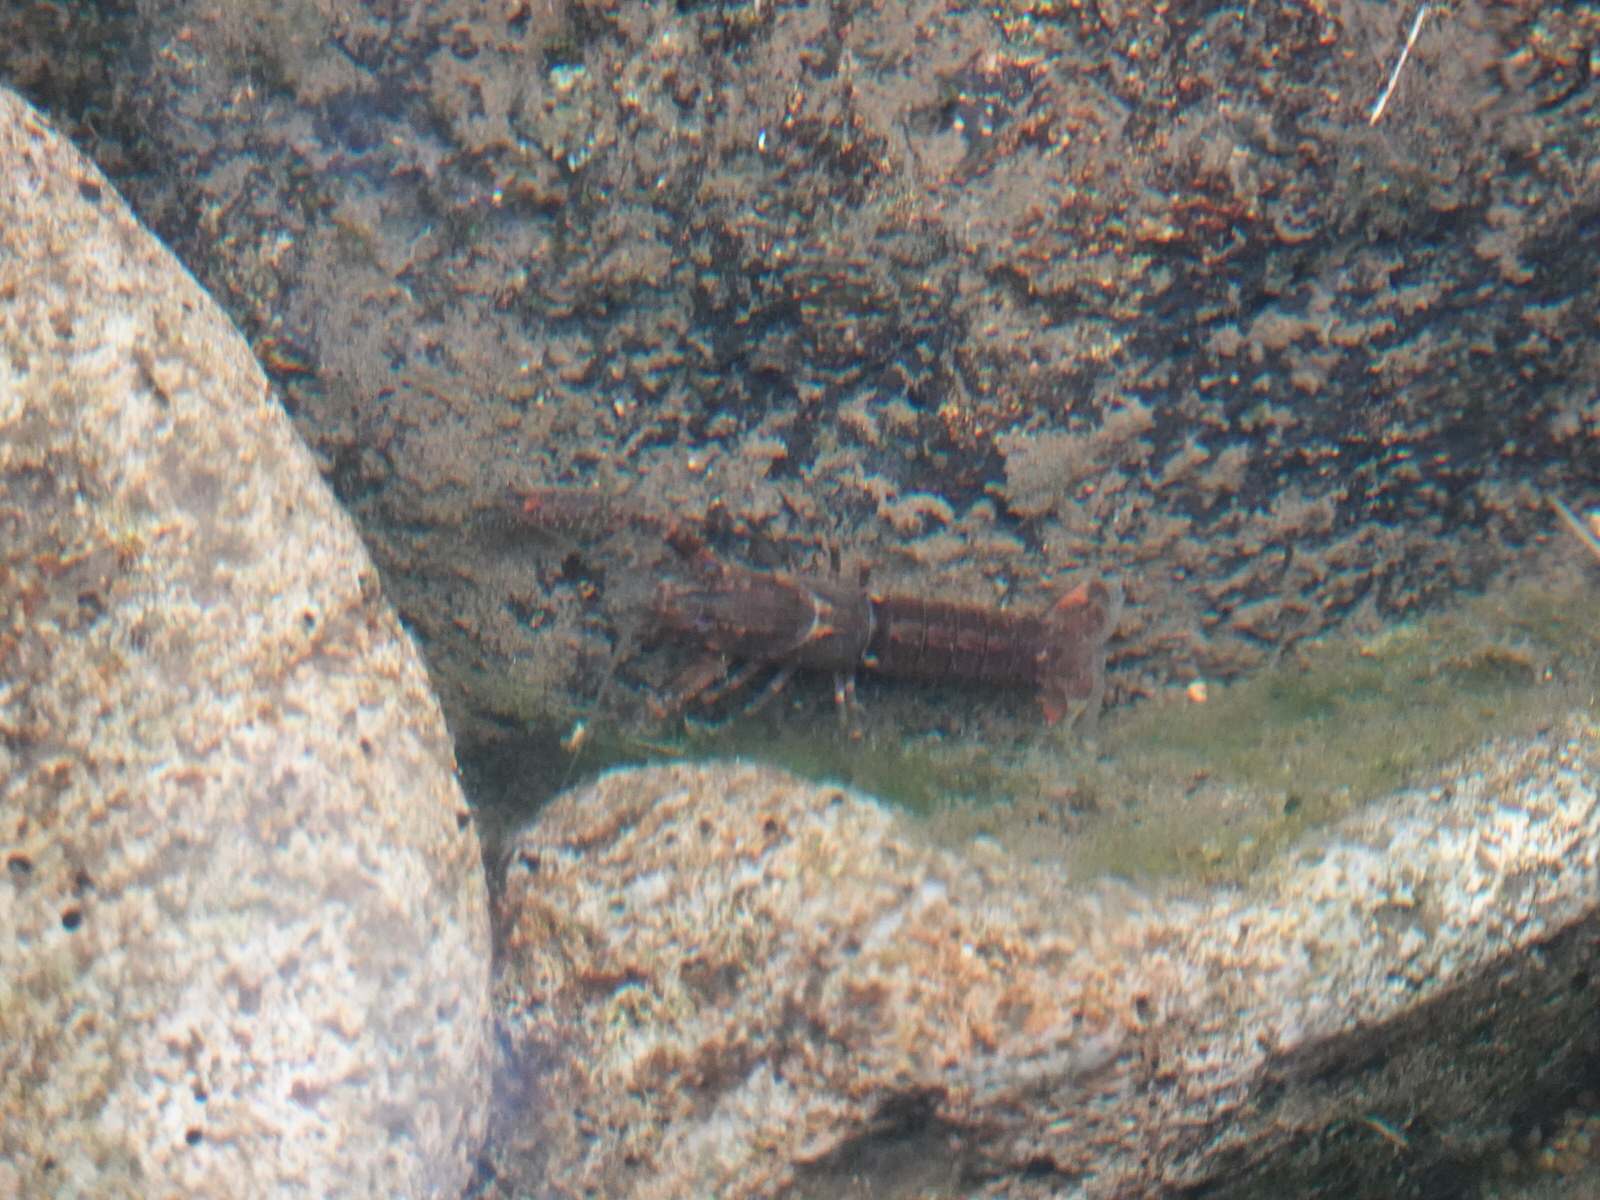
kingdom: Animalia
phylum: Arthropoda
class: Malacostraca
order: Decapoda
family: Parastacidae
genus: Paranephrops
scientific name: Paranephrops planifrons
